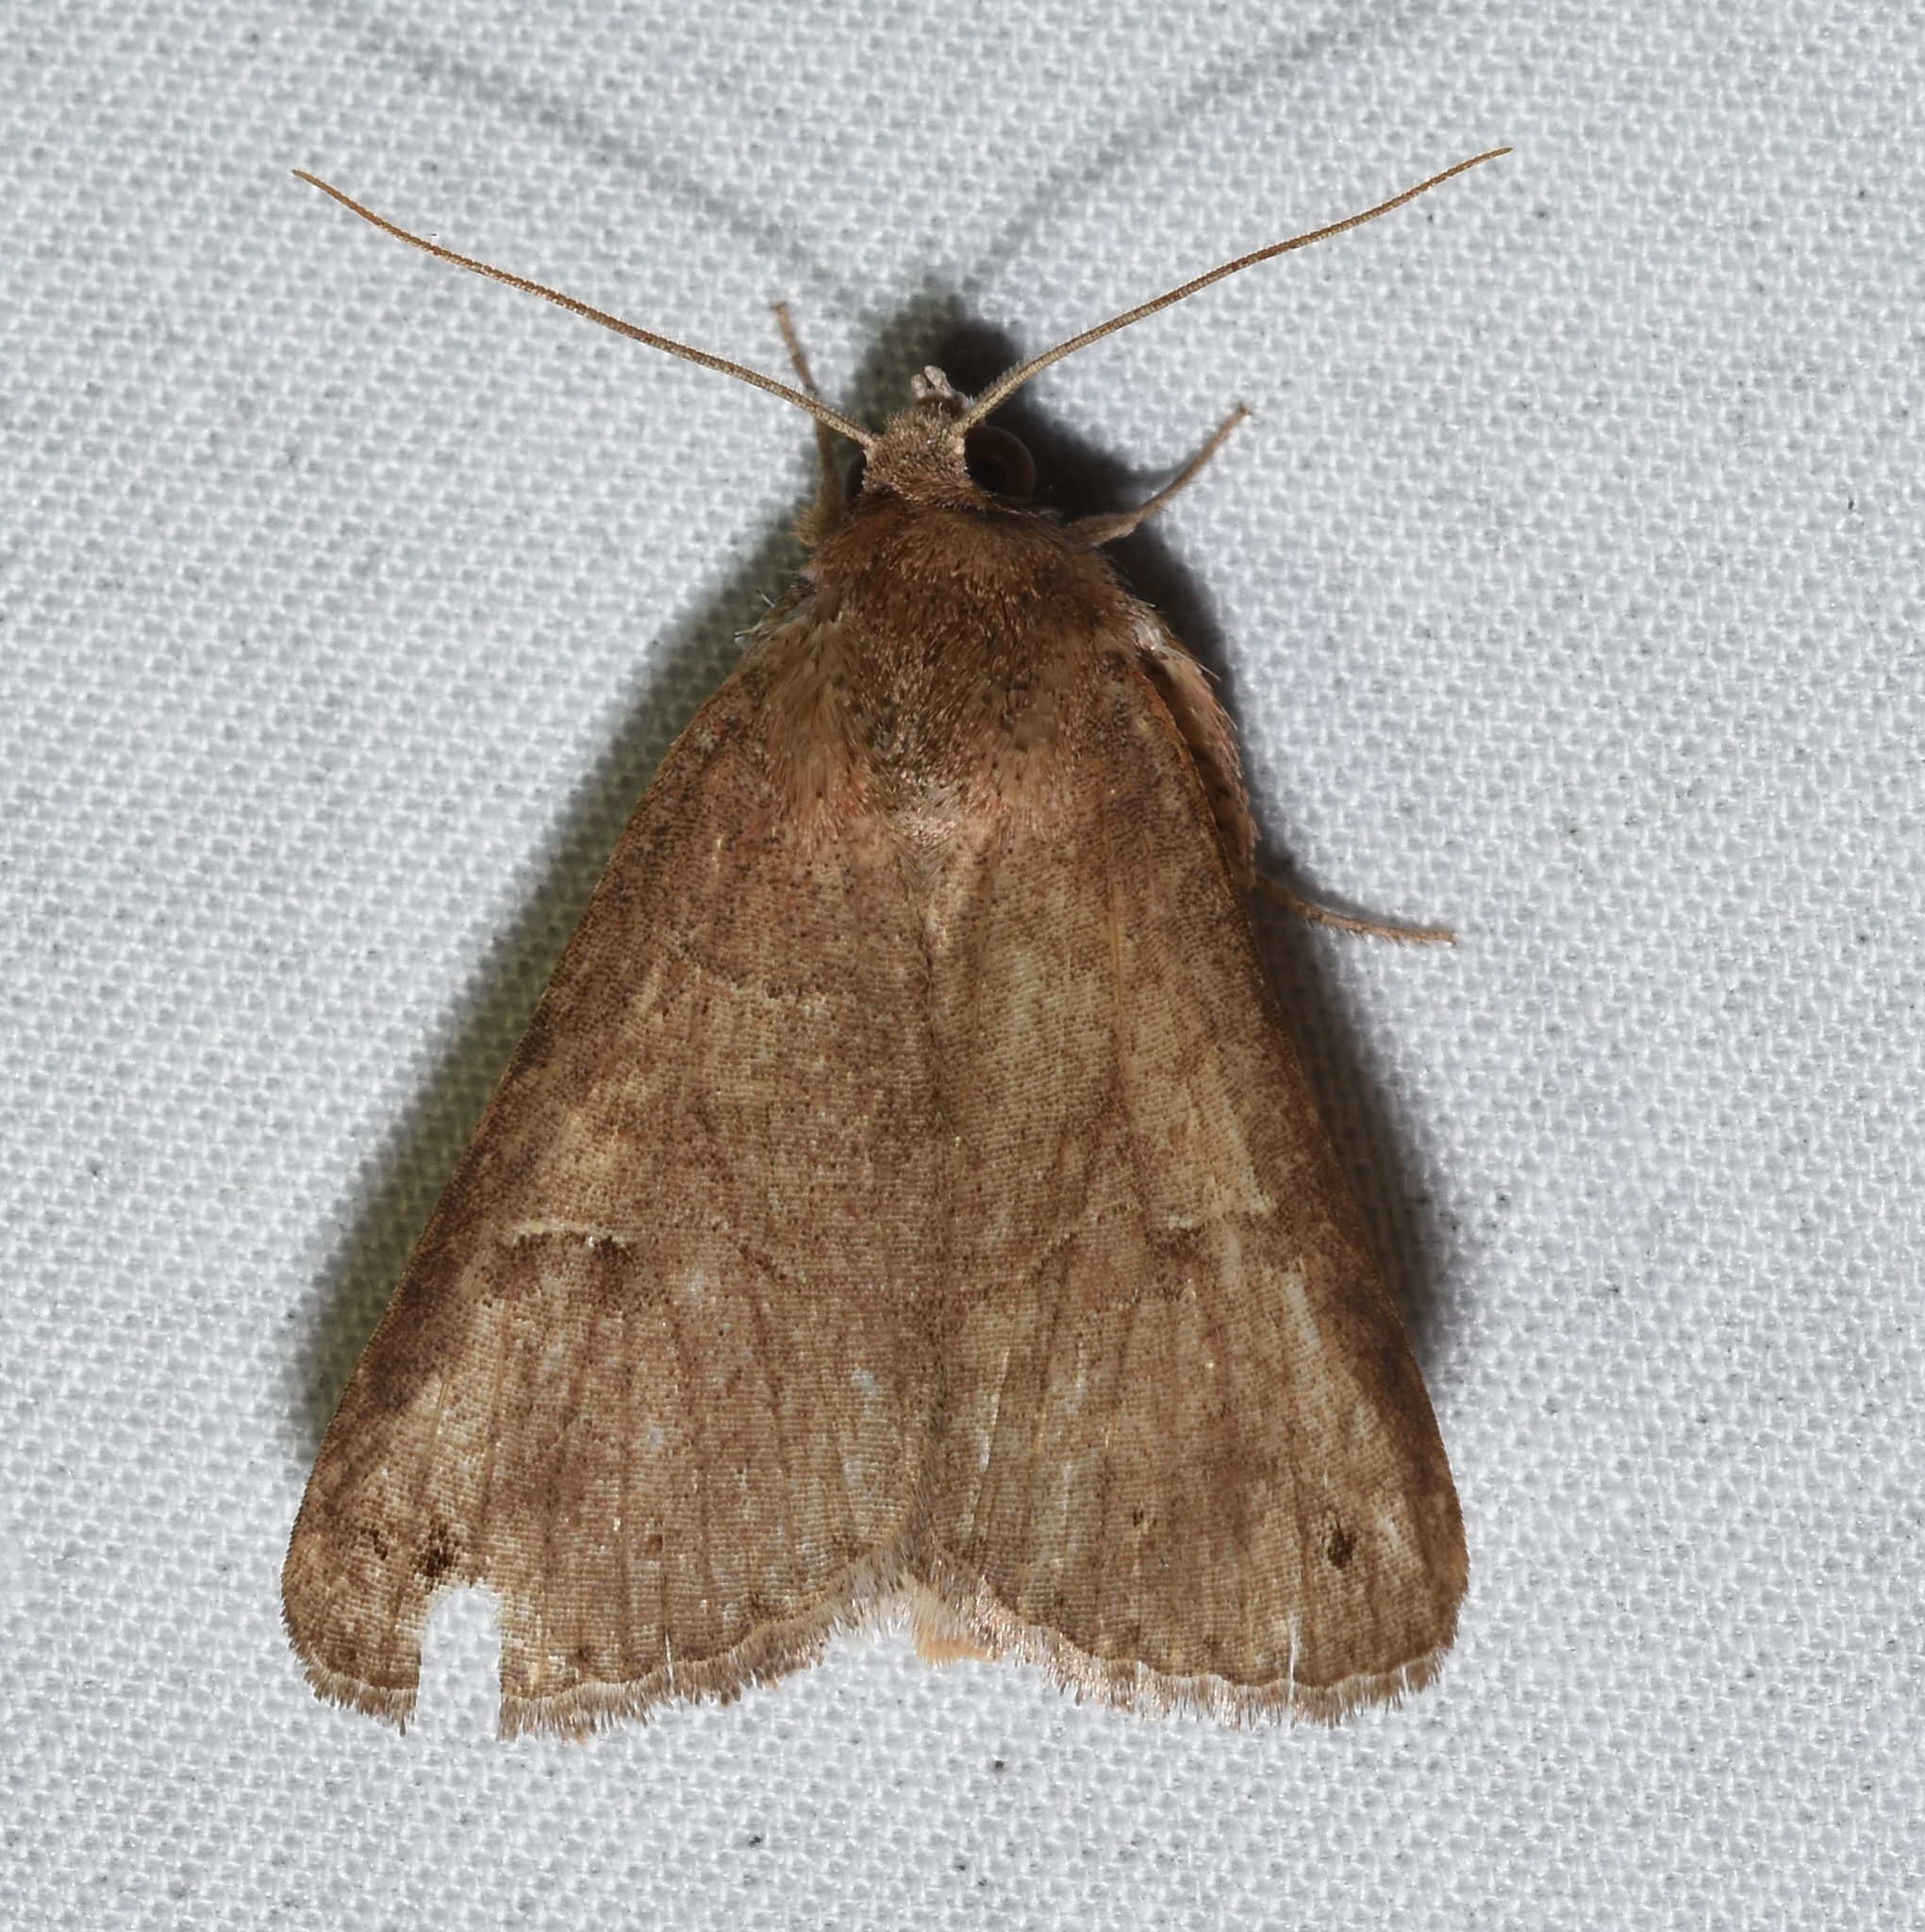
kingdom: Animalia
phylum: Arthropoda
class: Insecta
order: Lepidoptera
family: Erebidae
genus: Cissusa
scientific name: Cissusa spadix
